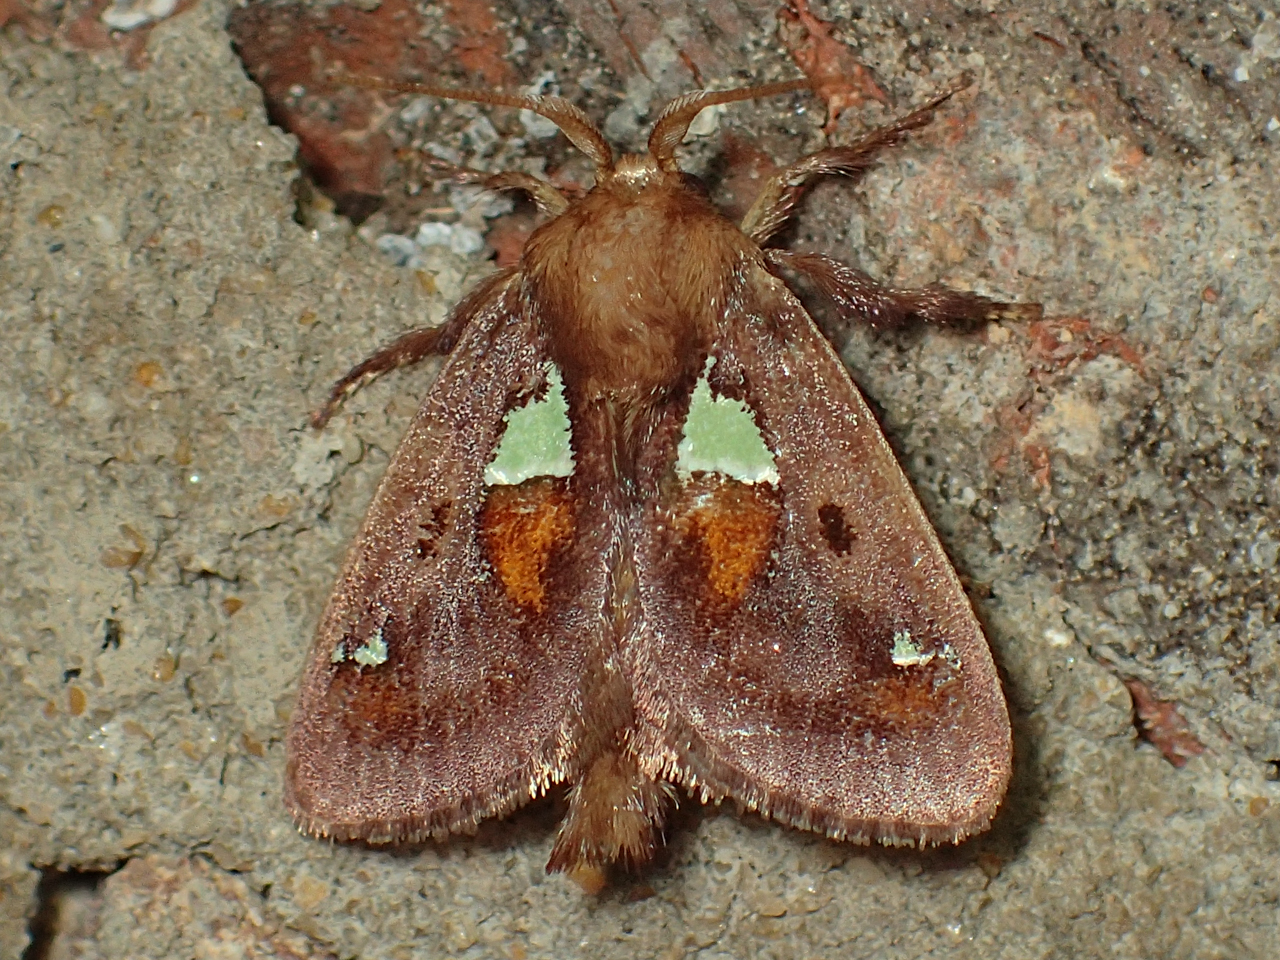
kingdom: Animalia
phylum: Arthropoda
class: Insecta
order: Lepidoptera
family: Limacodidae
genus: Euclea
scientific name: Euclea delphinii
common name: Spiny oak-slug moth
